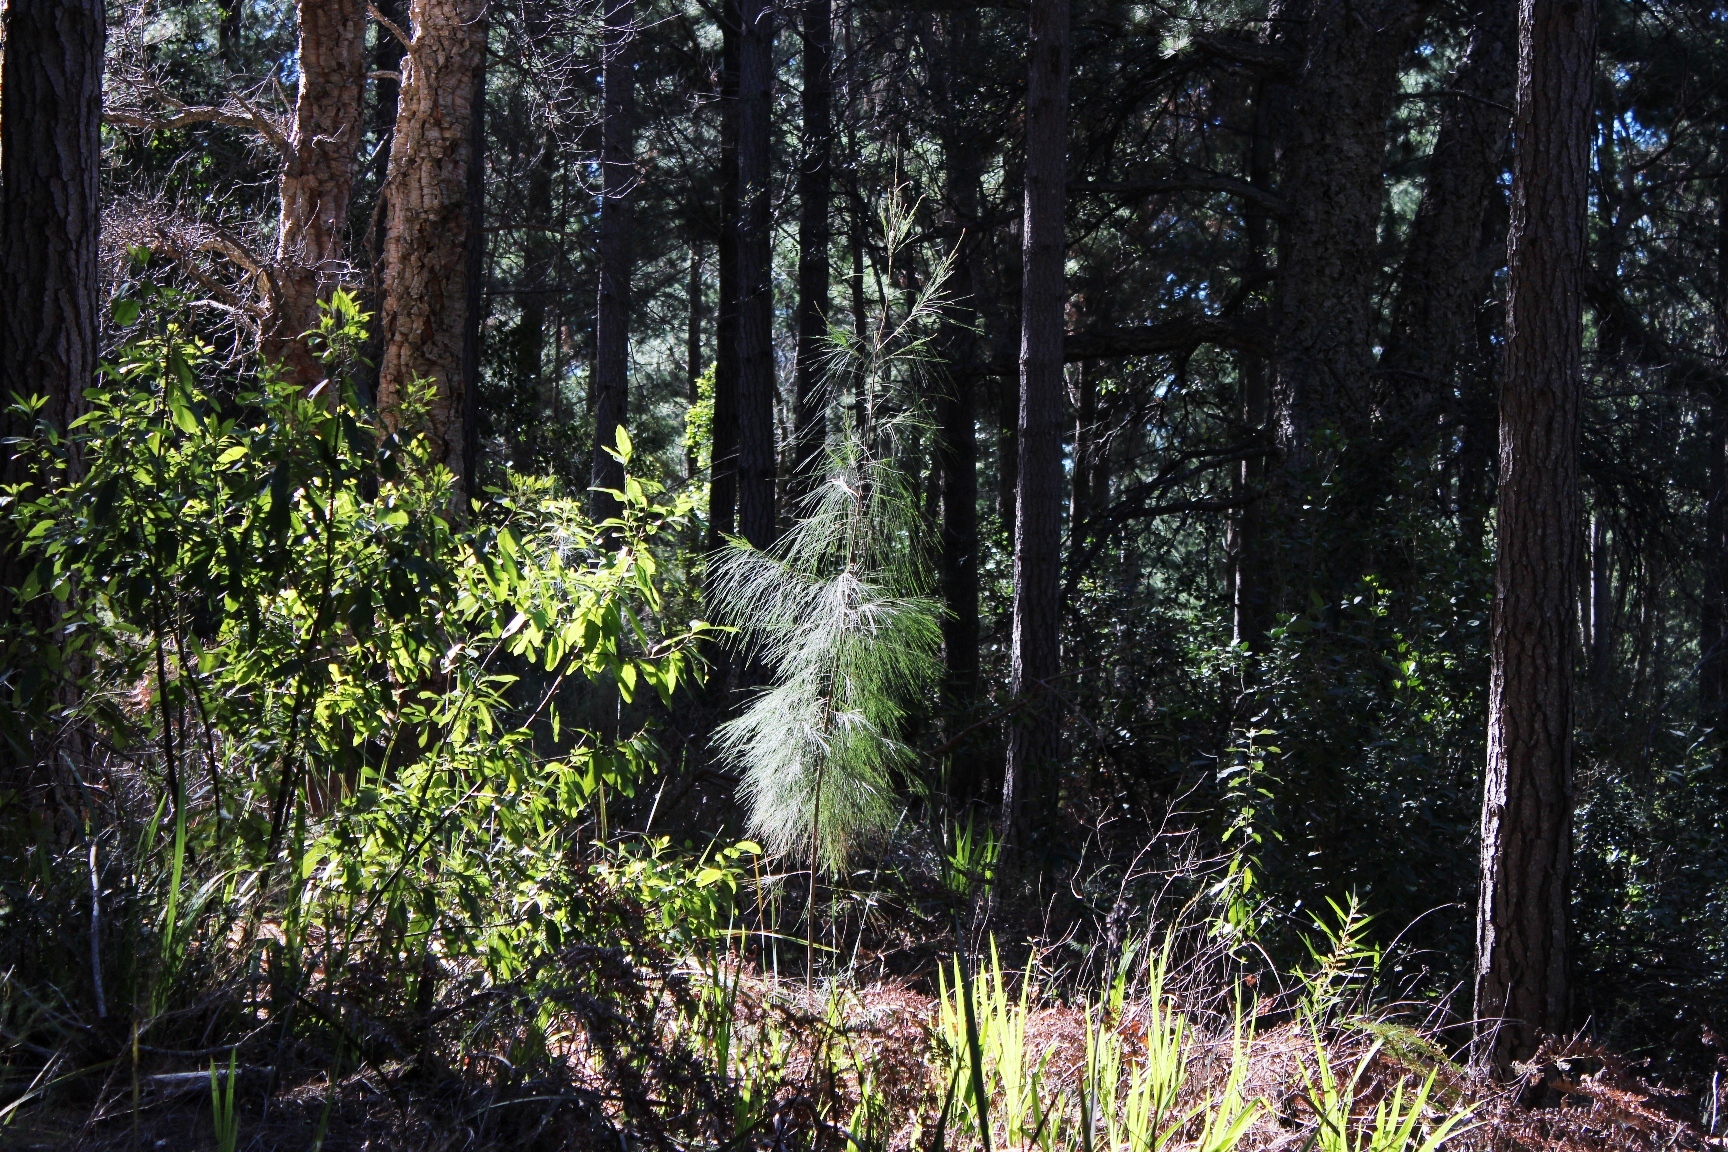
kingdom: Plantae
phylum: Tracheophyta
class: Magnoliopsida
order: Fagales
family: Casuarinaceae
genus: Allocasuarina
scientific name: Allocasuarina littoralis
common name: Black she-oak
